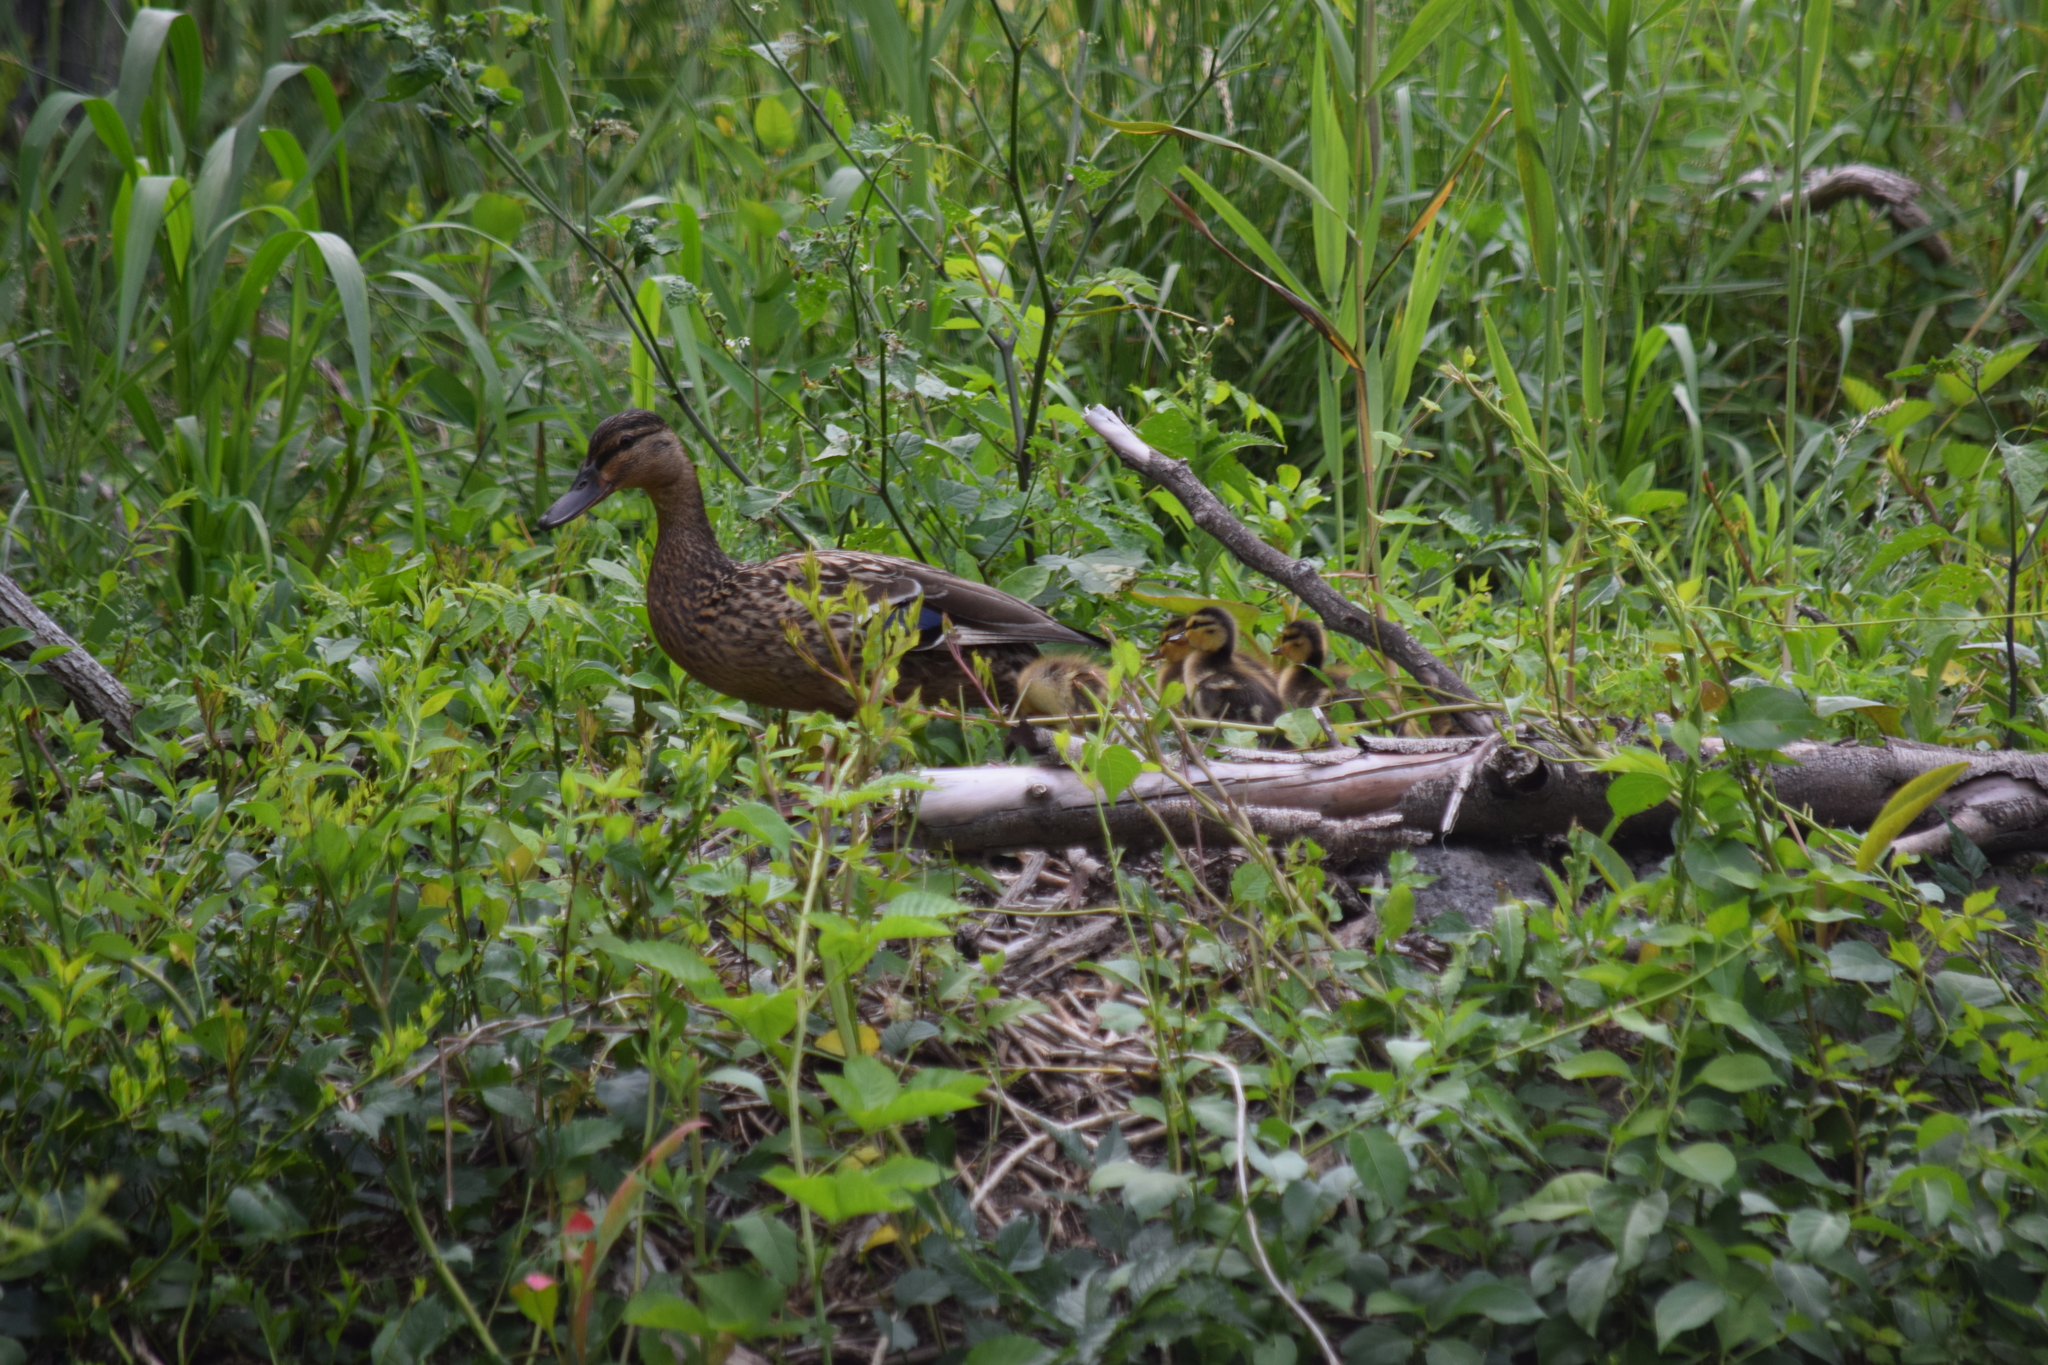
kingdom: Animalia
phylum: Chordata
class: Aves
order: Anseriformes
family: Anatidae
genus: Anas
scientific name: Anas platyrhynchos
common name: Mallard
